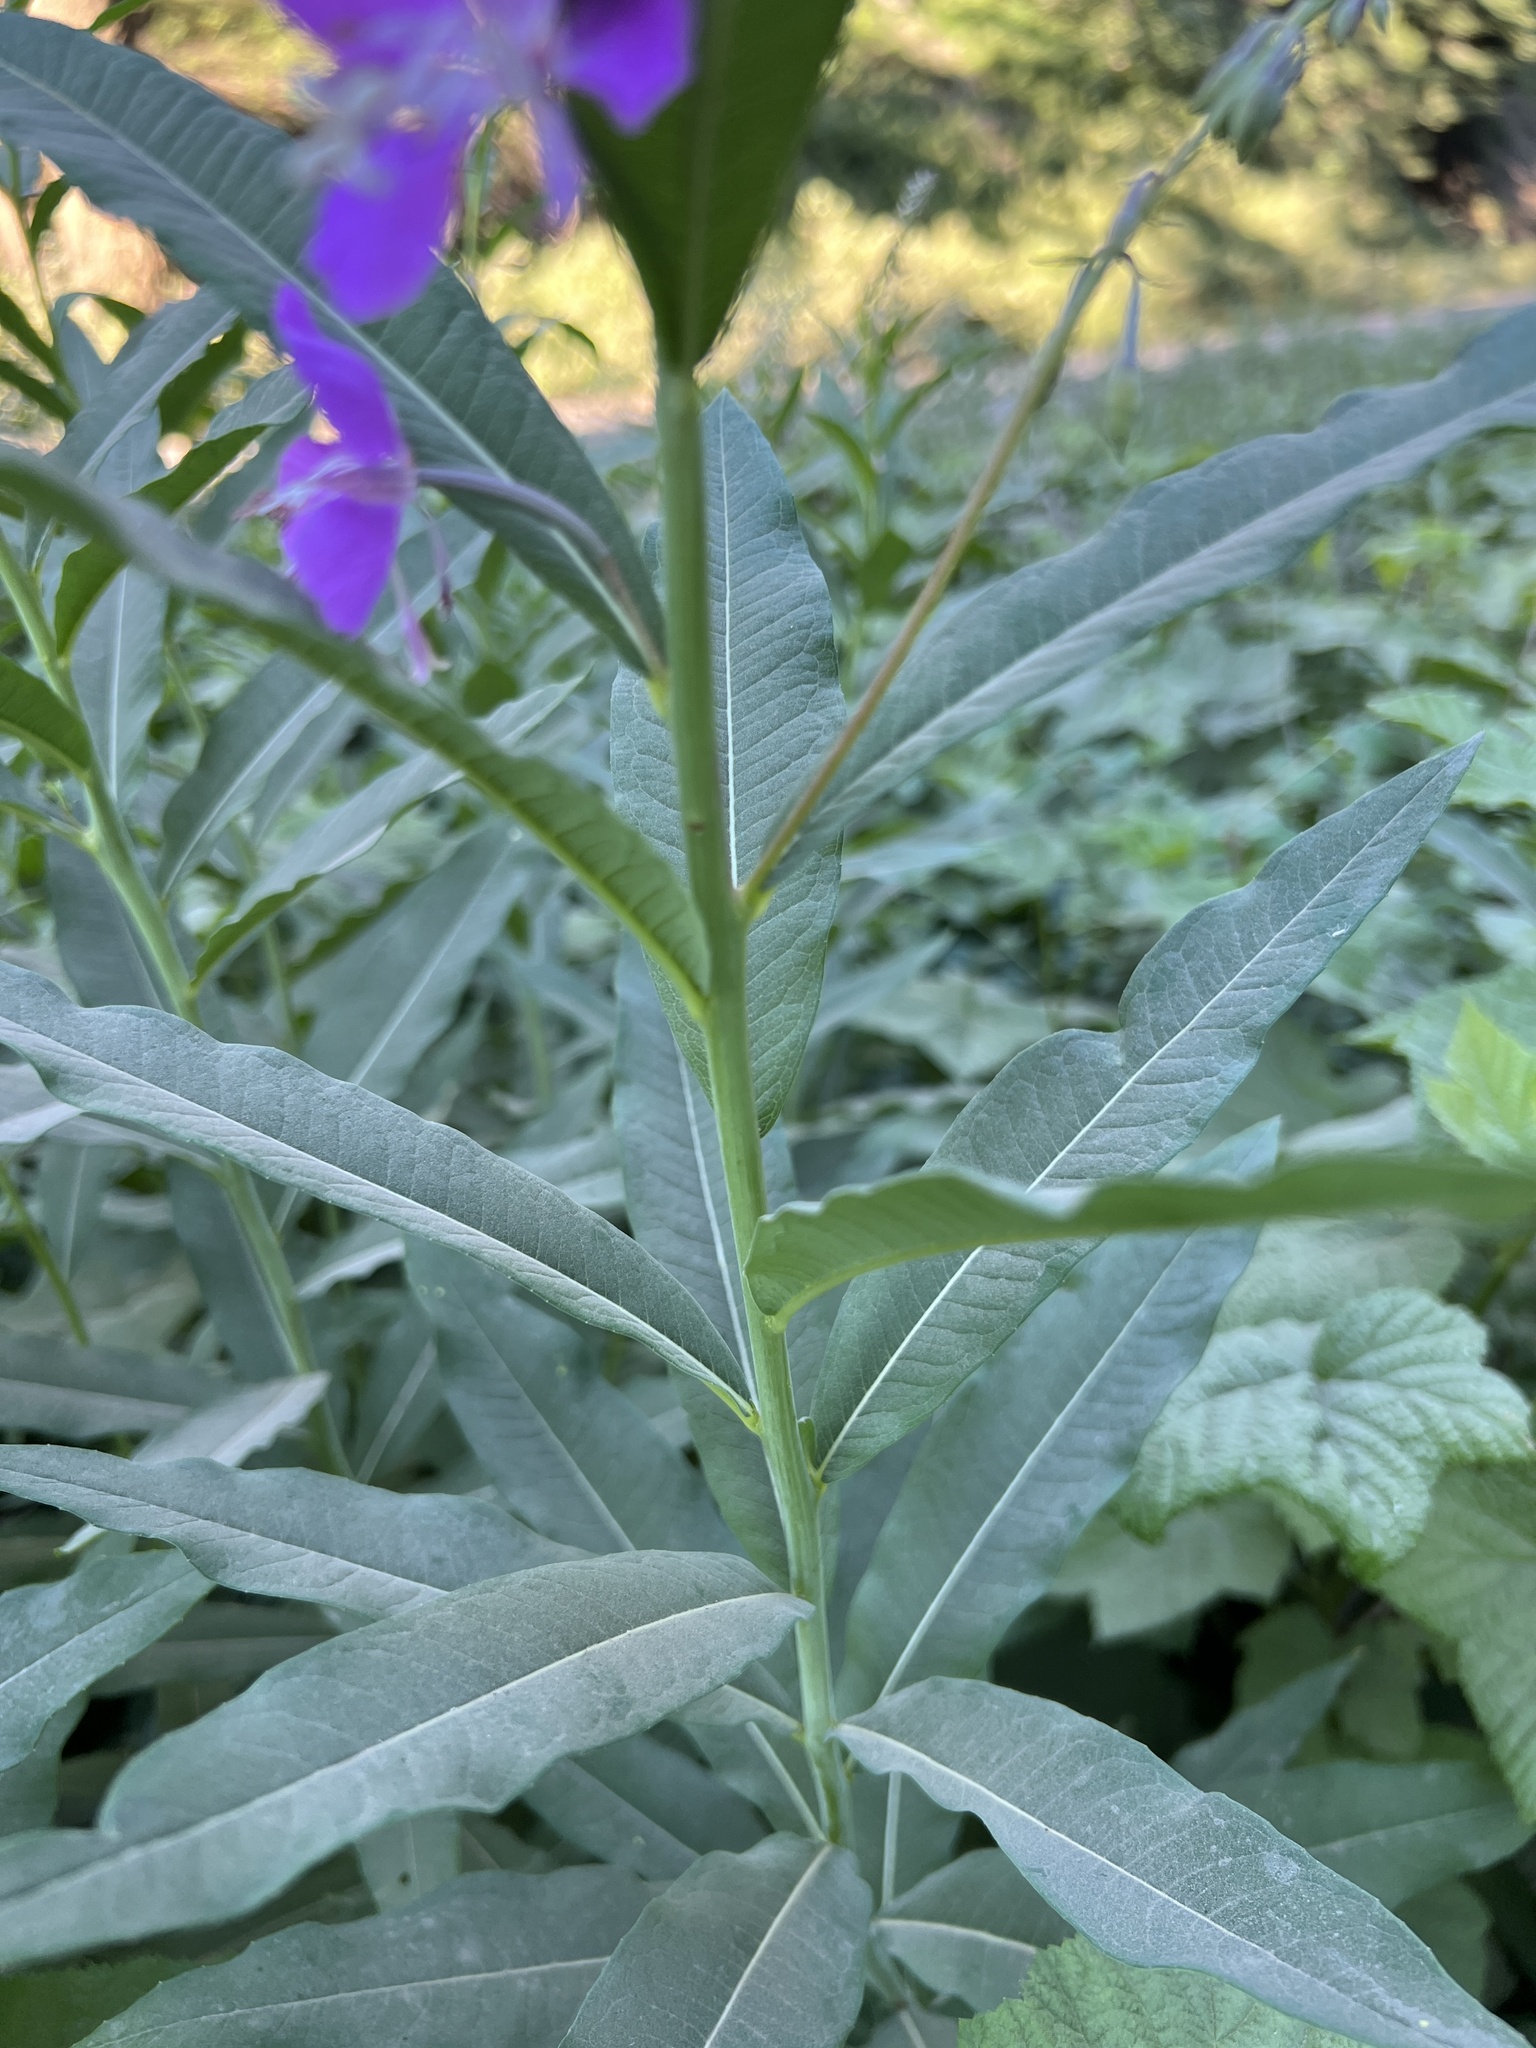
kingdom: Plantae
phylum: Tracheophyta
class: Magnoliopsida
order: Myrtales
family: Onagraceae
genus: Chamaenerion
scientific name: Chamaenerion angustifolium
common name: Fireweed
